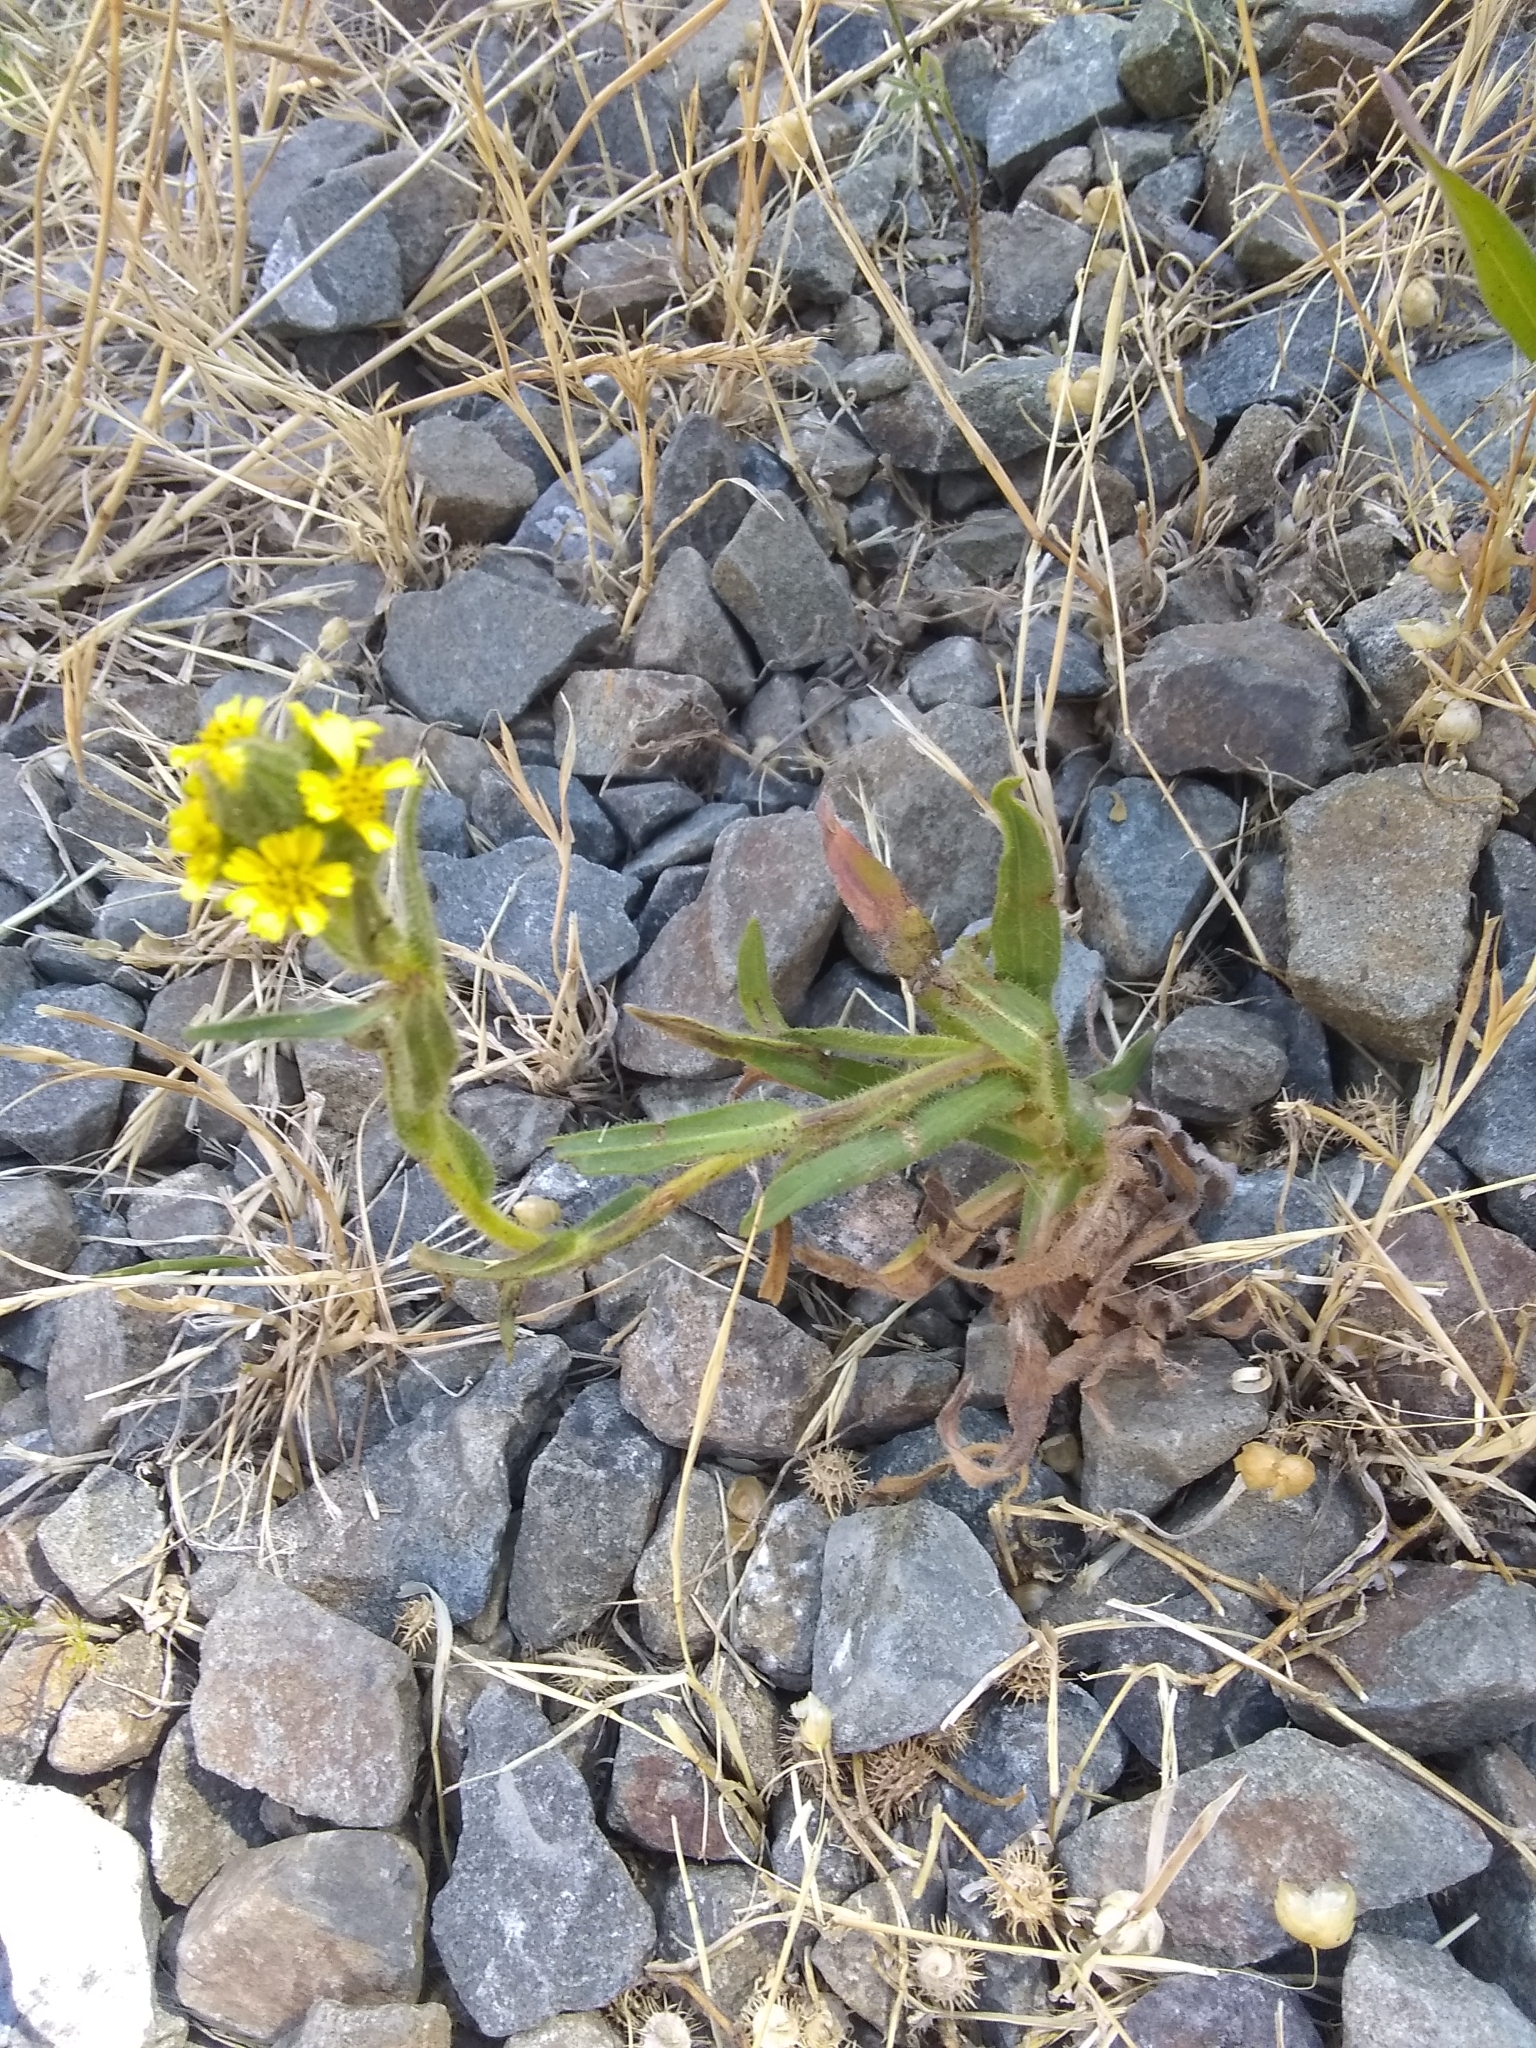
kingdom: Plantae
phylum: Tracheophyta
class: Magnoliopsida
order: Asterales
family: Asteraceae
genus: Madia
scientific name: Madia sativa
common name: Coast tarweed
